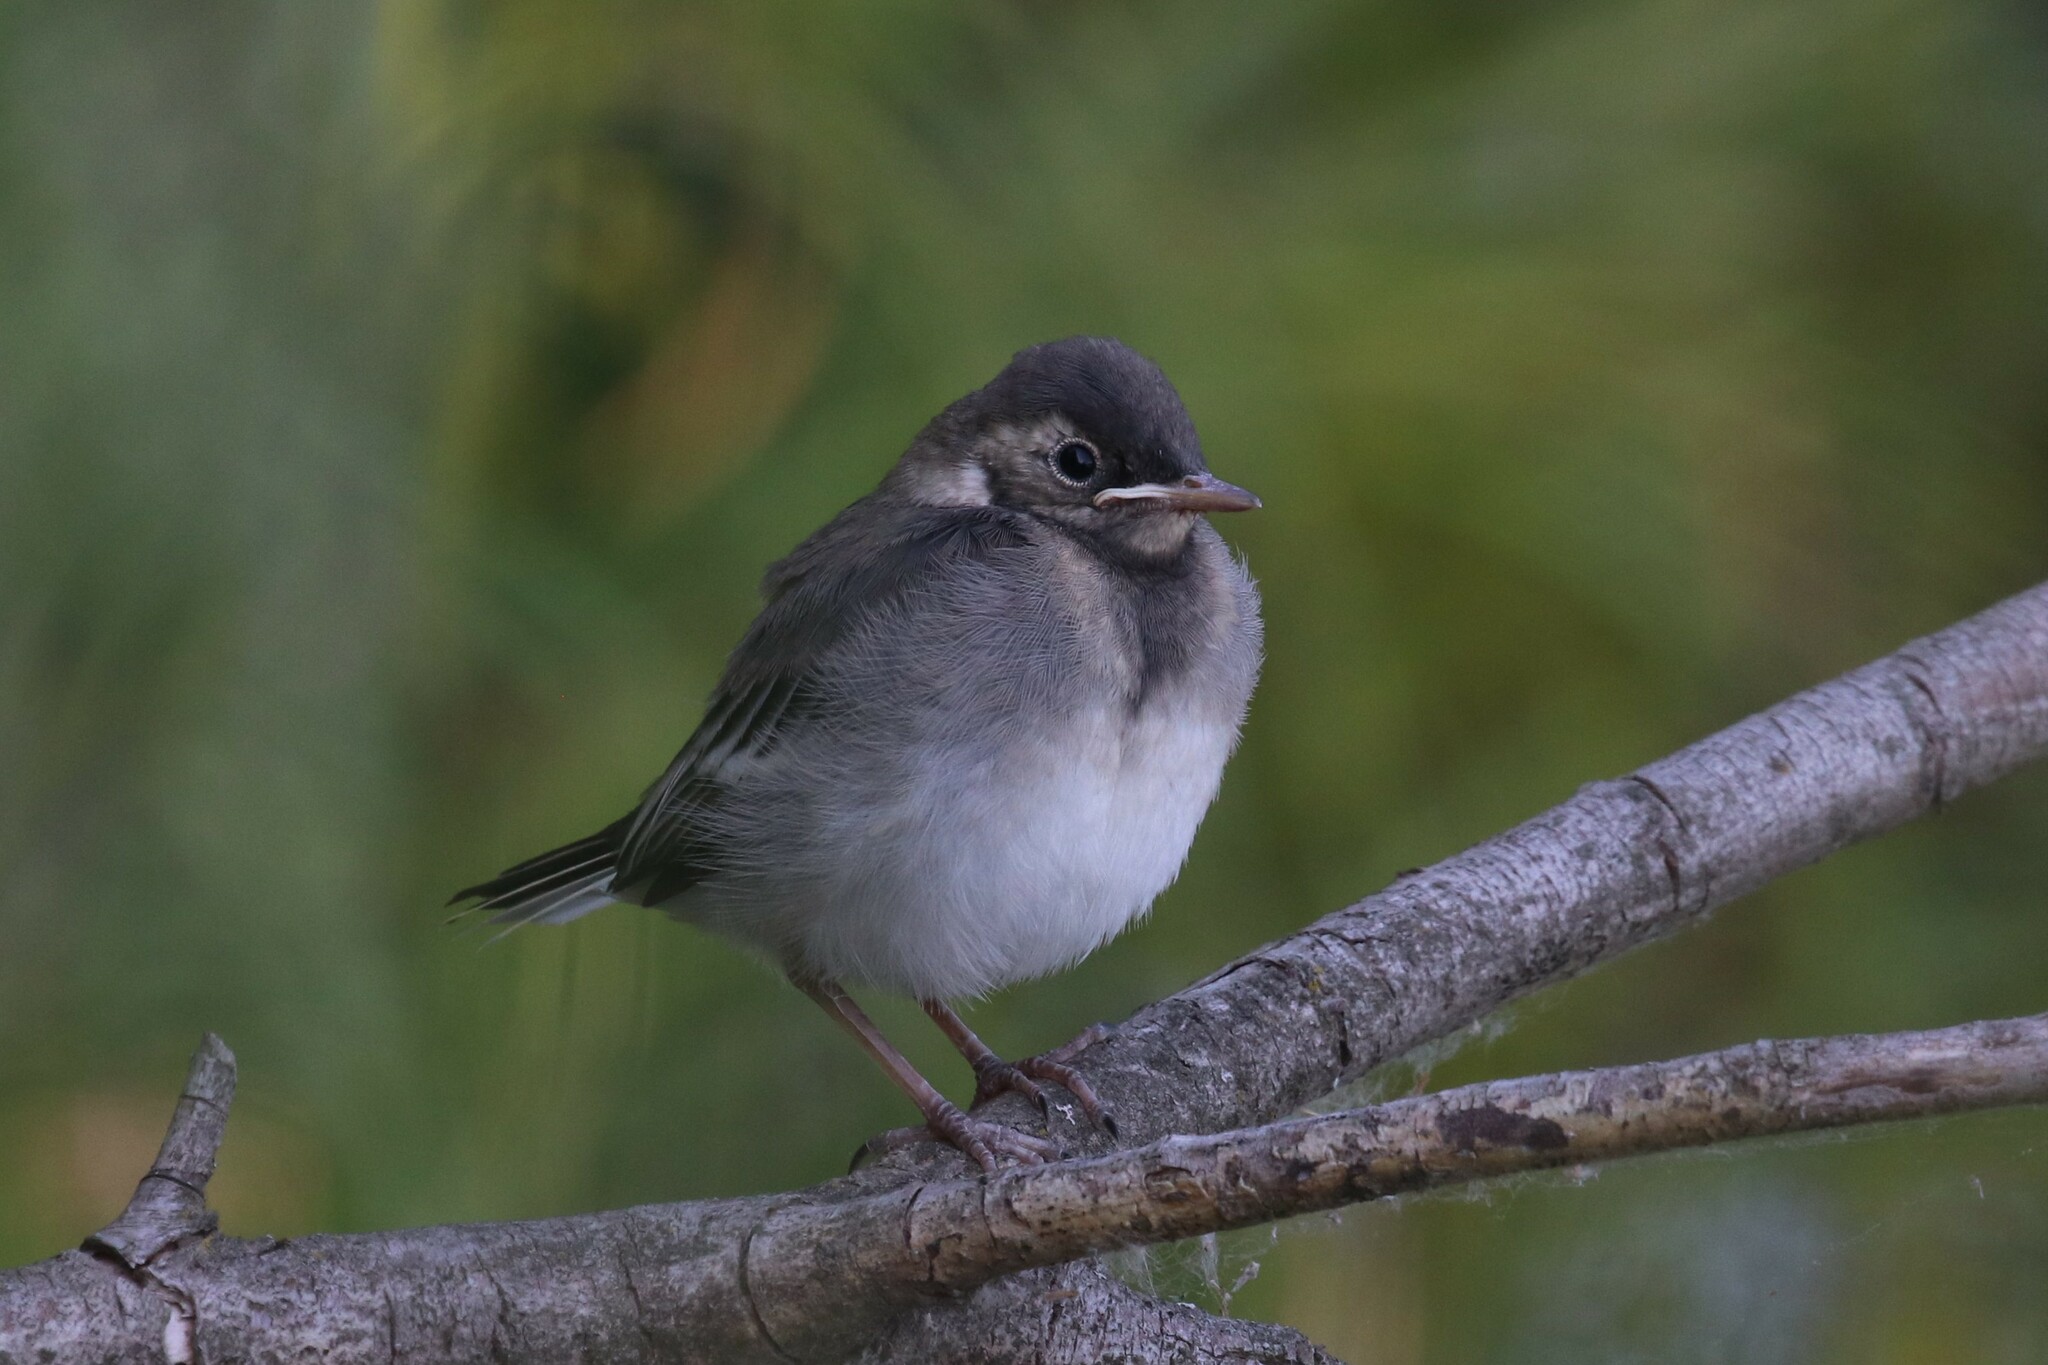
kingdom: Animalia
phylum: Chordata
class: Aves
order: Passeriformes
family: Motacillidae
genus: Motacilla
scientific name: Motacilla alba
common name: White wagtail
